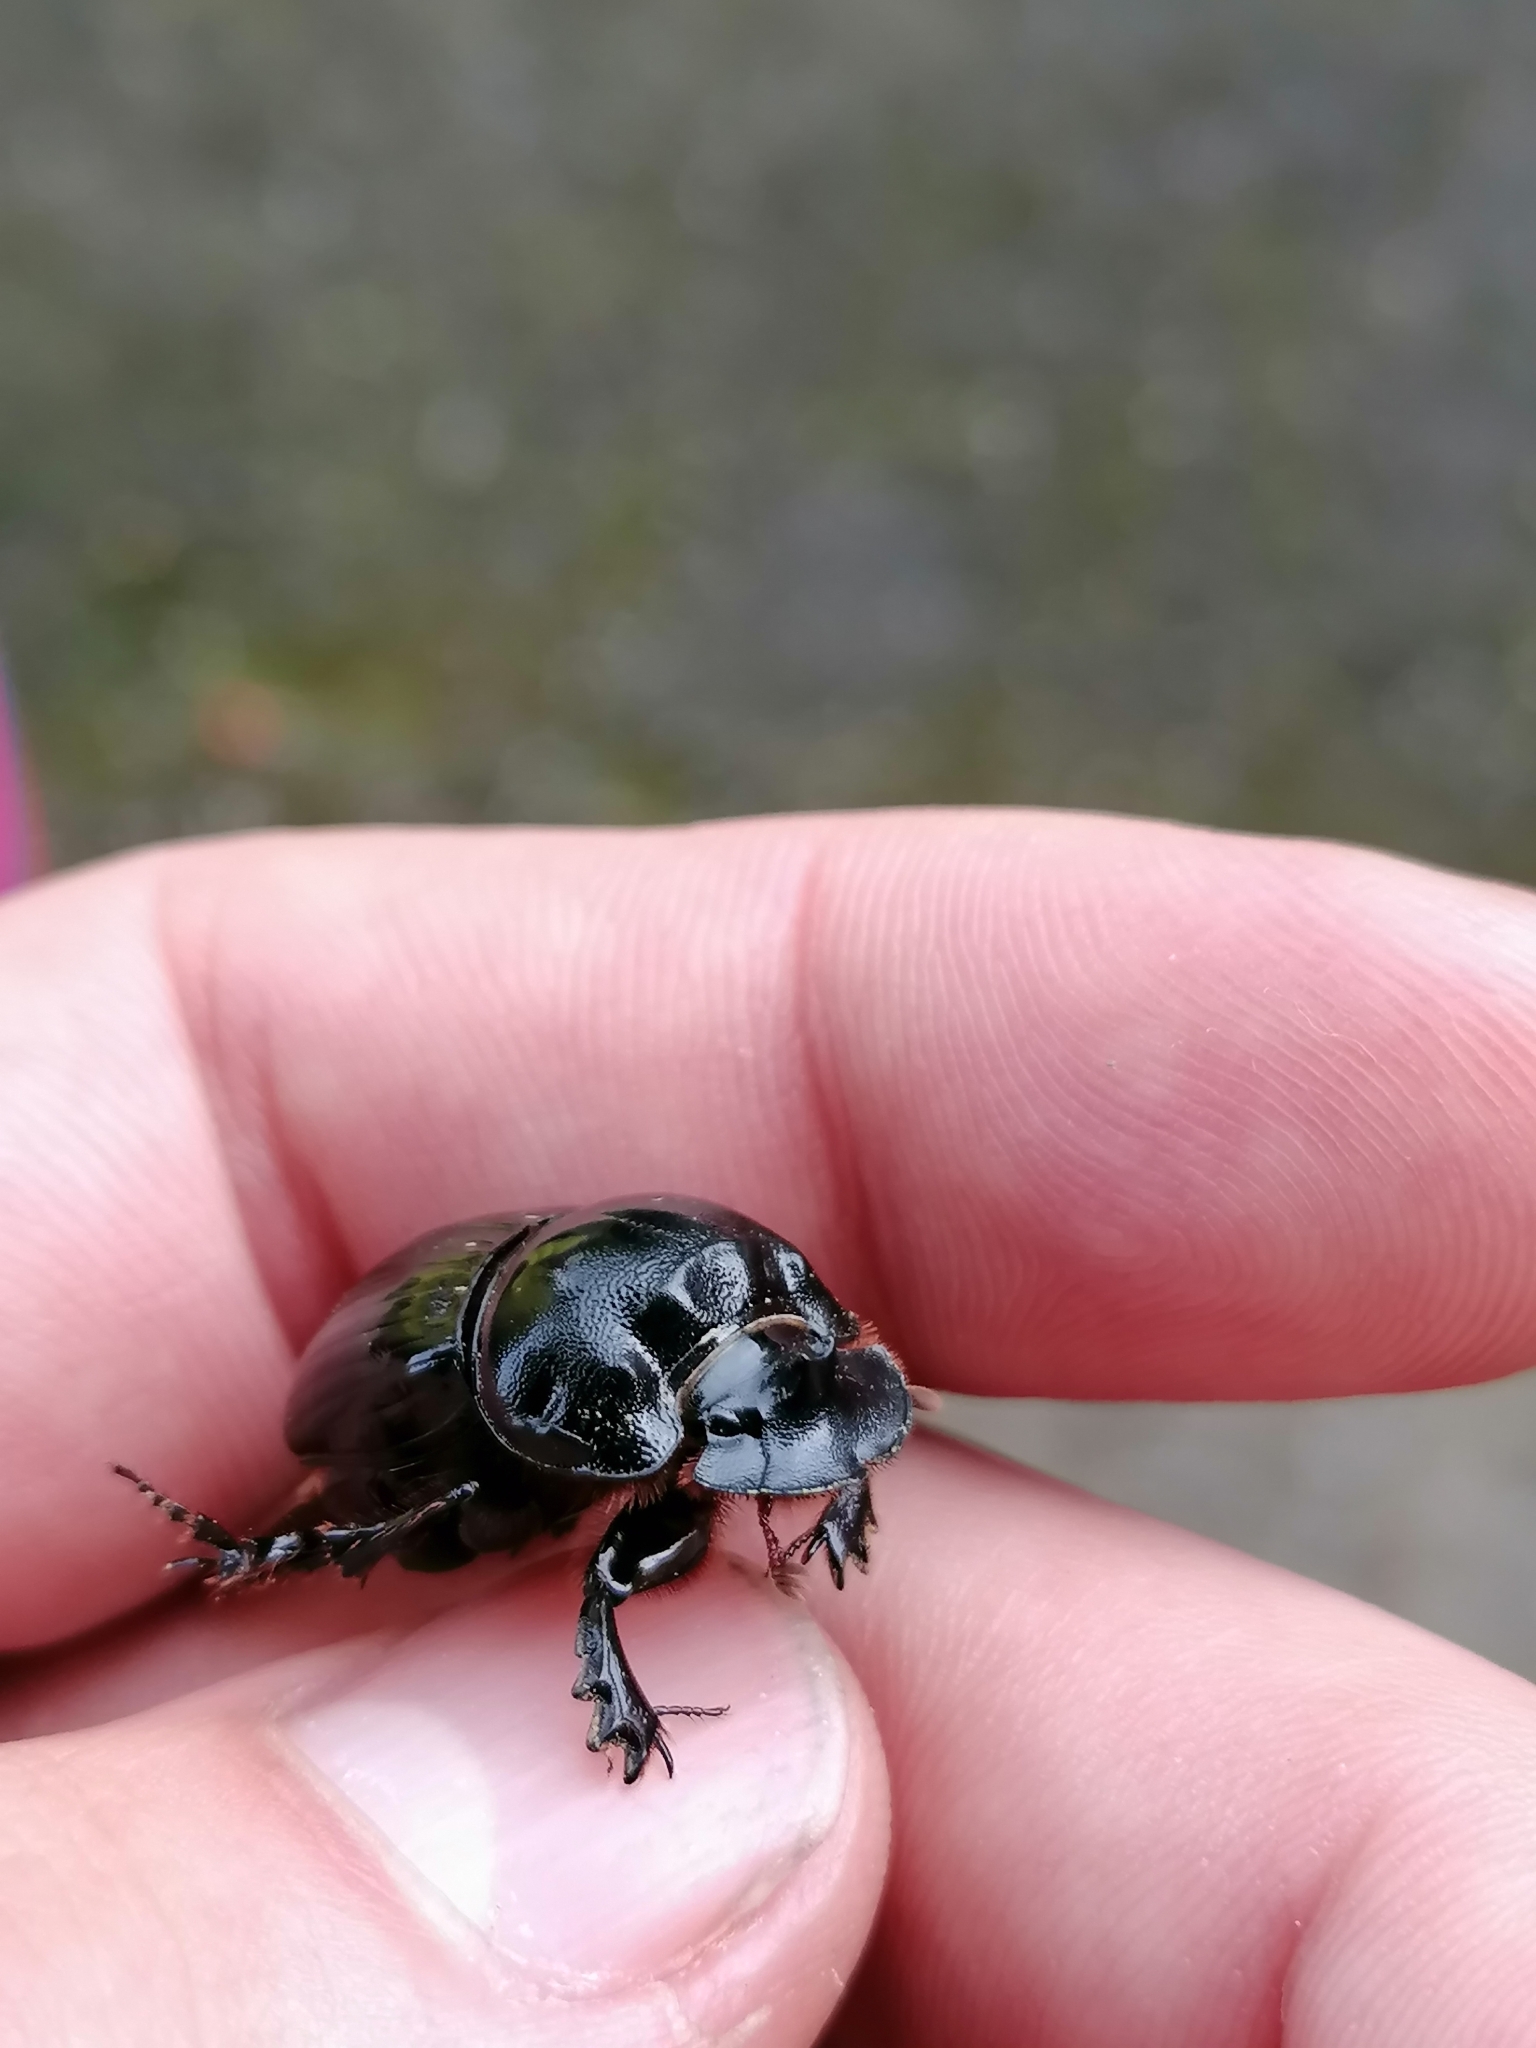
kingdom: Animalia
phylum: Arthropoda
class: Insecta
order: Coleoptera
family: Scarabaeidae
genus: Copris
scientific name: Copris lunaris
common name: Horned dung beetle
